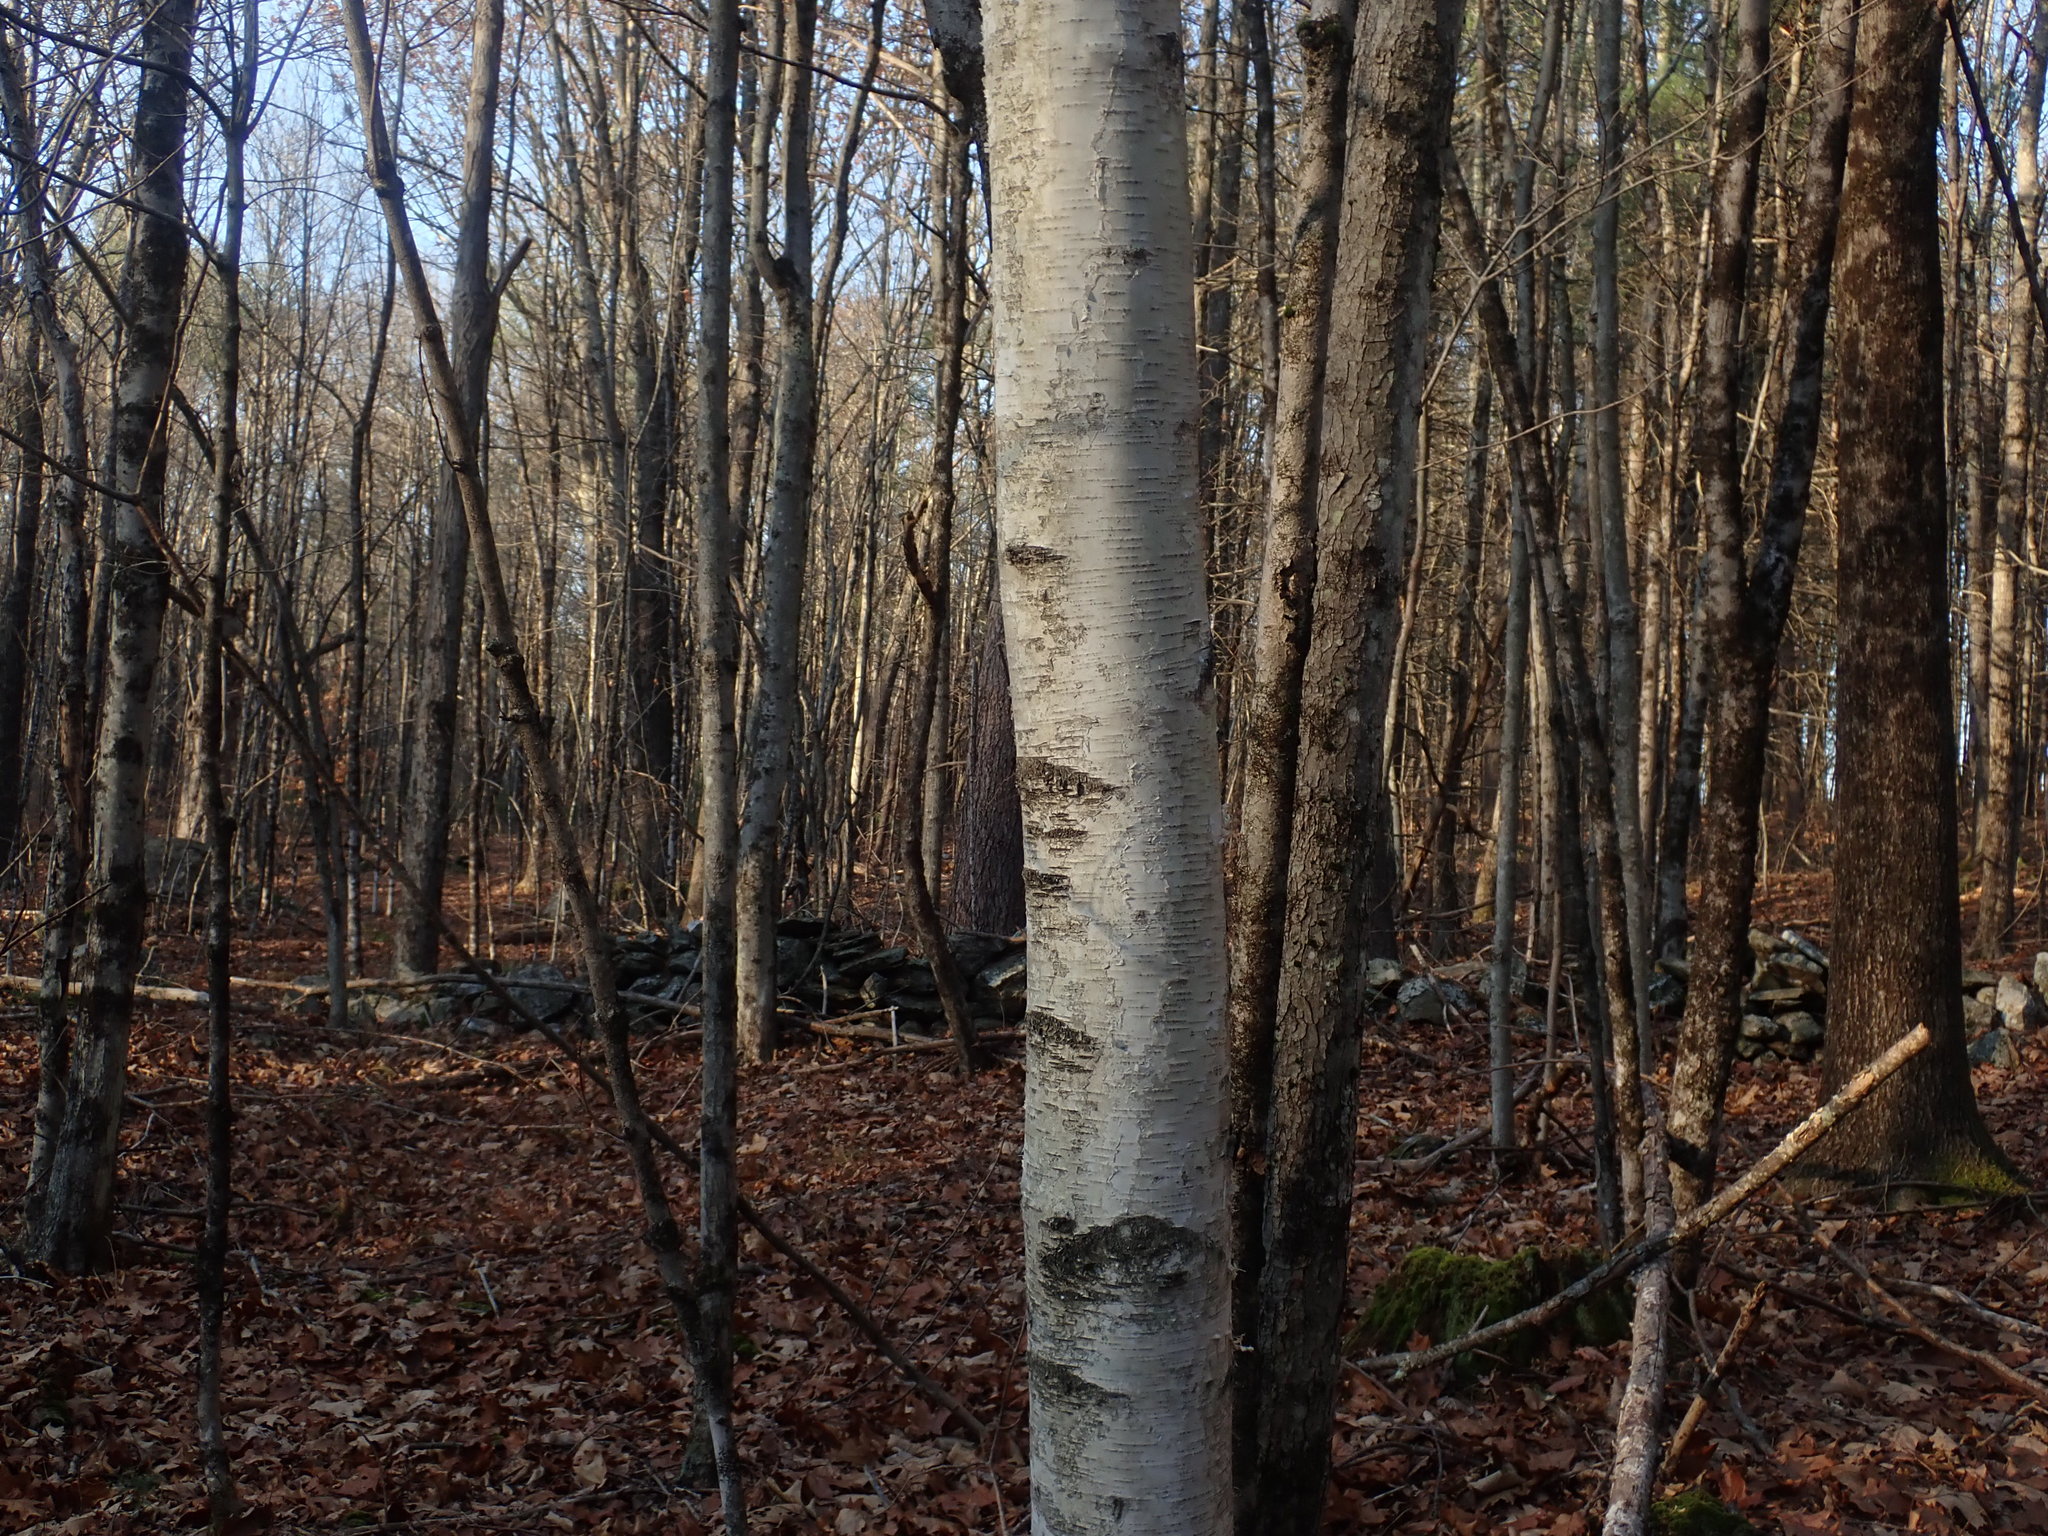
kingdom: Plantae
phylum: Tracheophyta
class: Magnoliopsida
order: Fagales
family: Betulaceae
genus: Betula
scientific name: Betula papyrifera
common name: Paper birch
